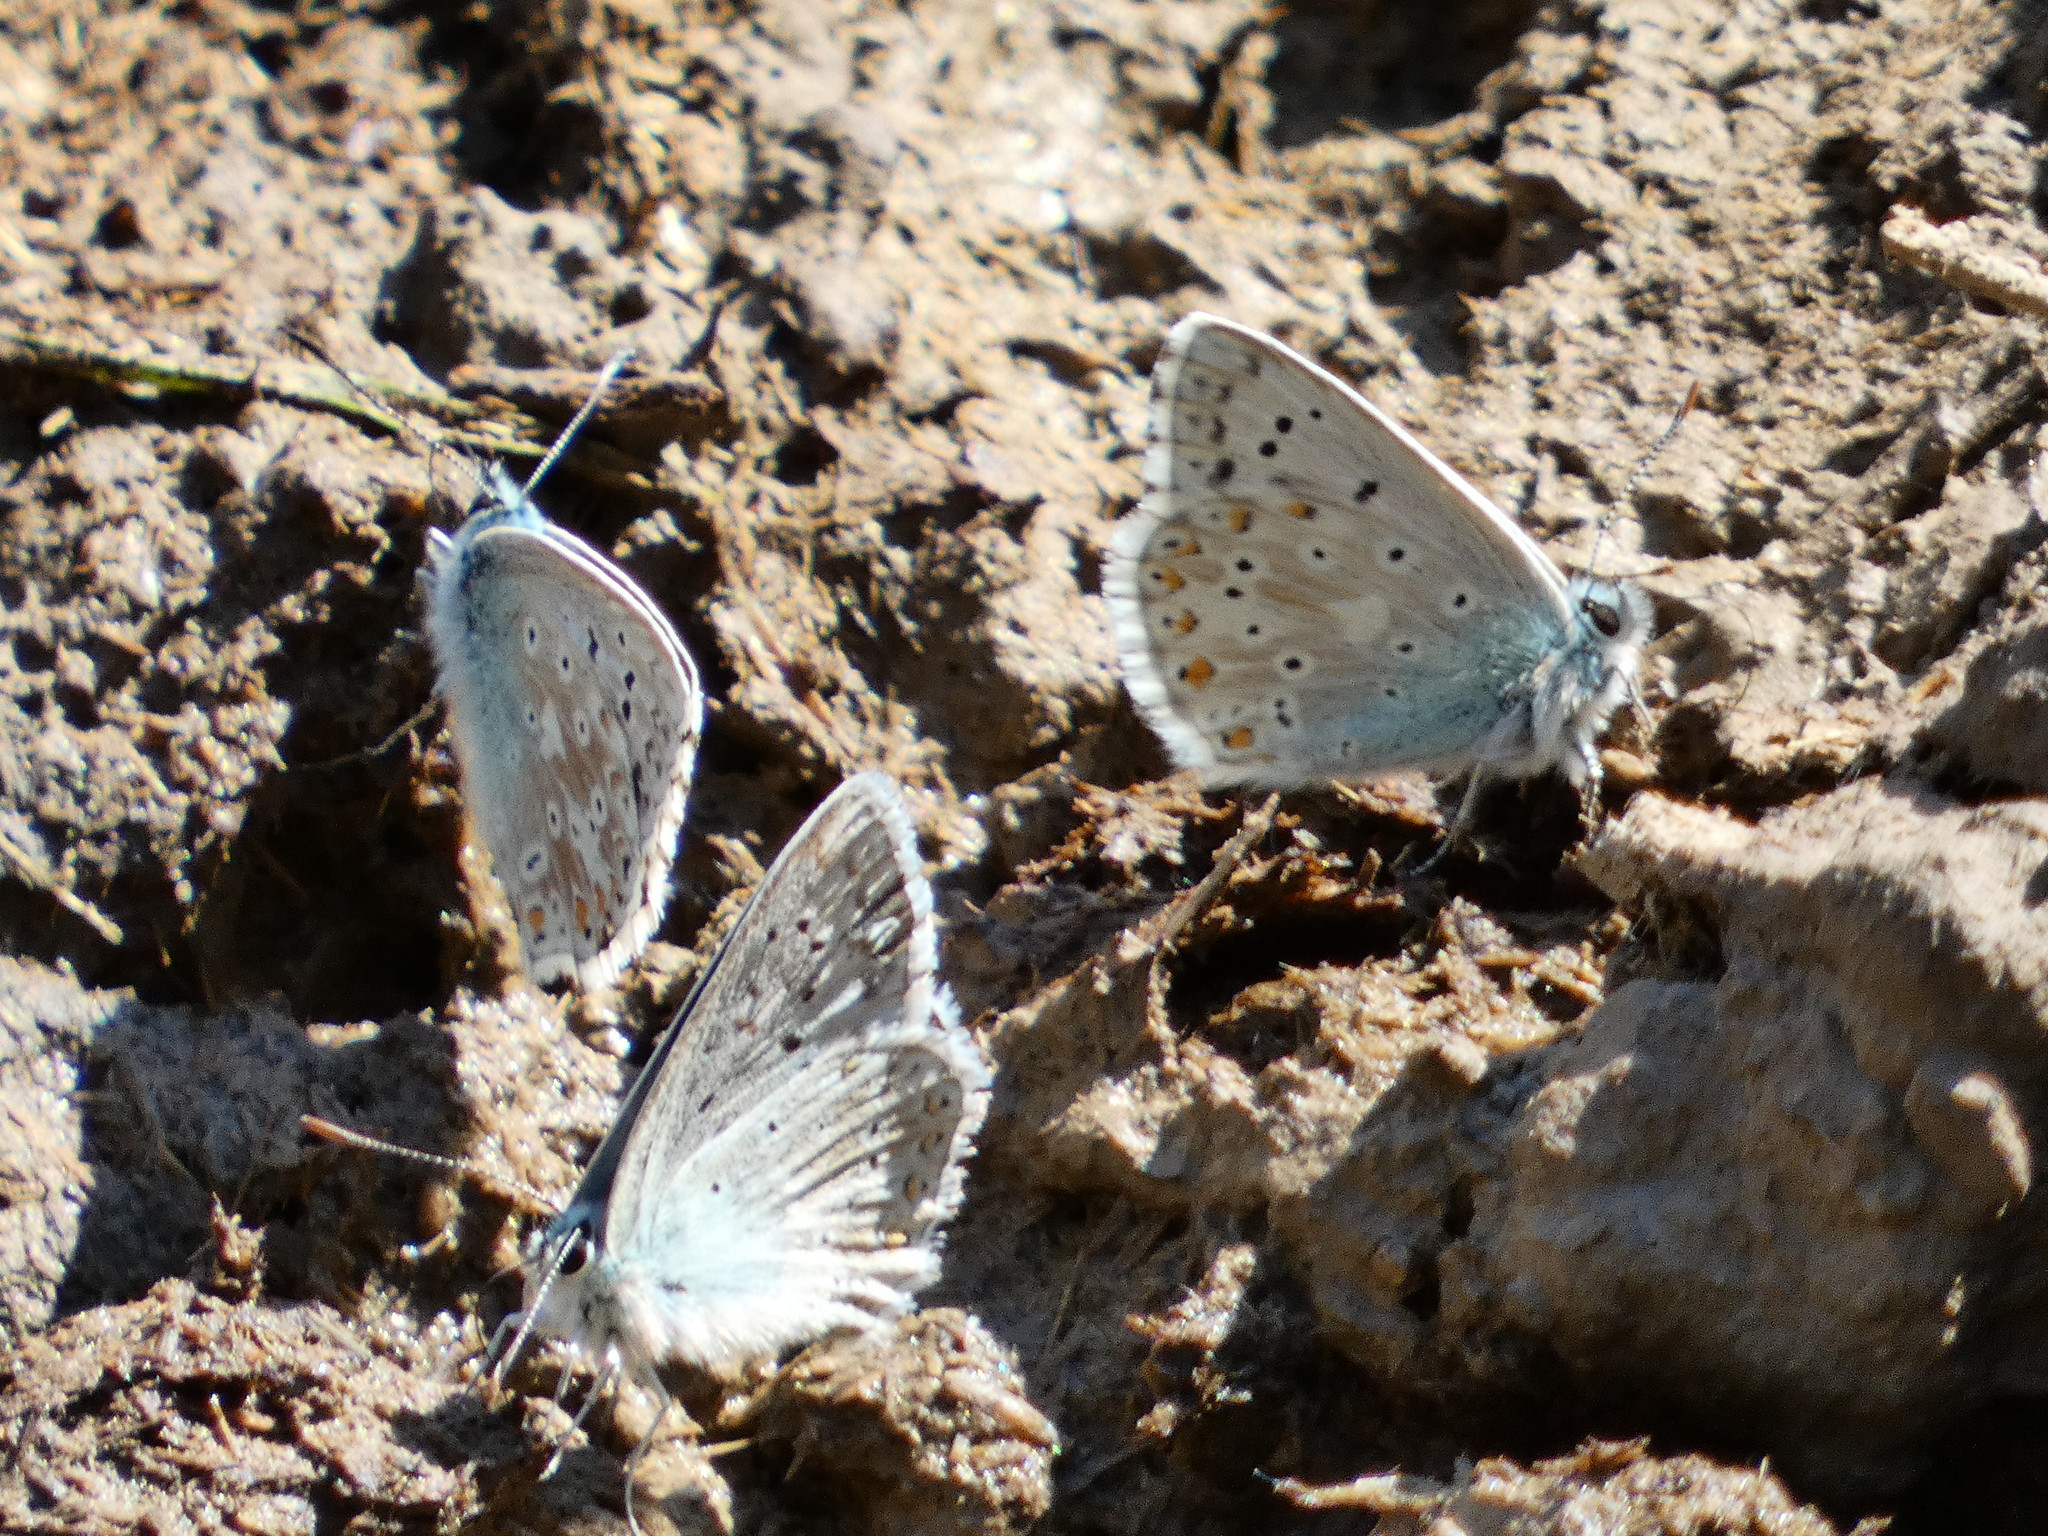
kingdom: Animalia
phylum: Arthropoda
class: Insecta
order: Lepidoptera
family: Lycaenidae
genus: Lysandra
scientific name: Lysandra coridon
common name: Chalkhill blue
